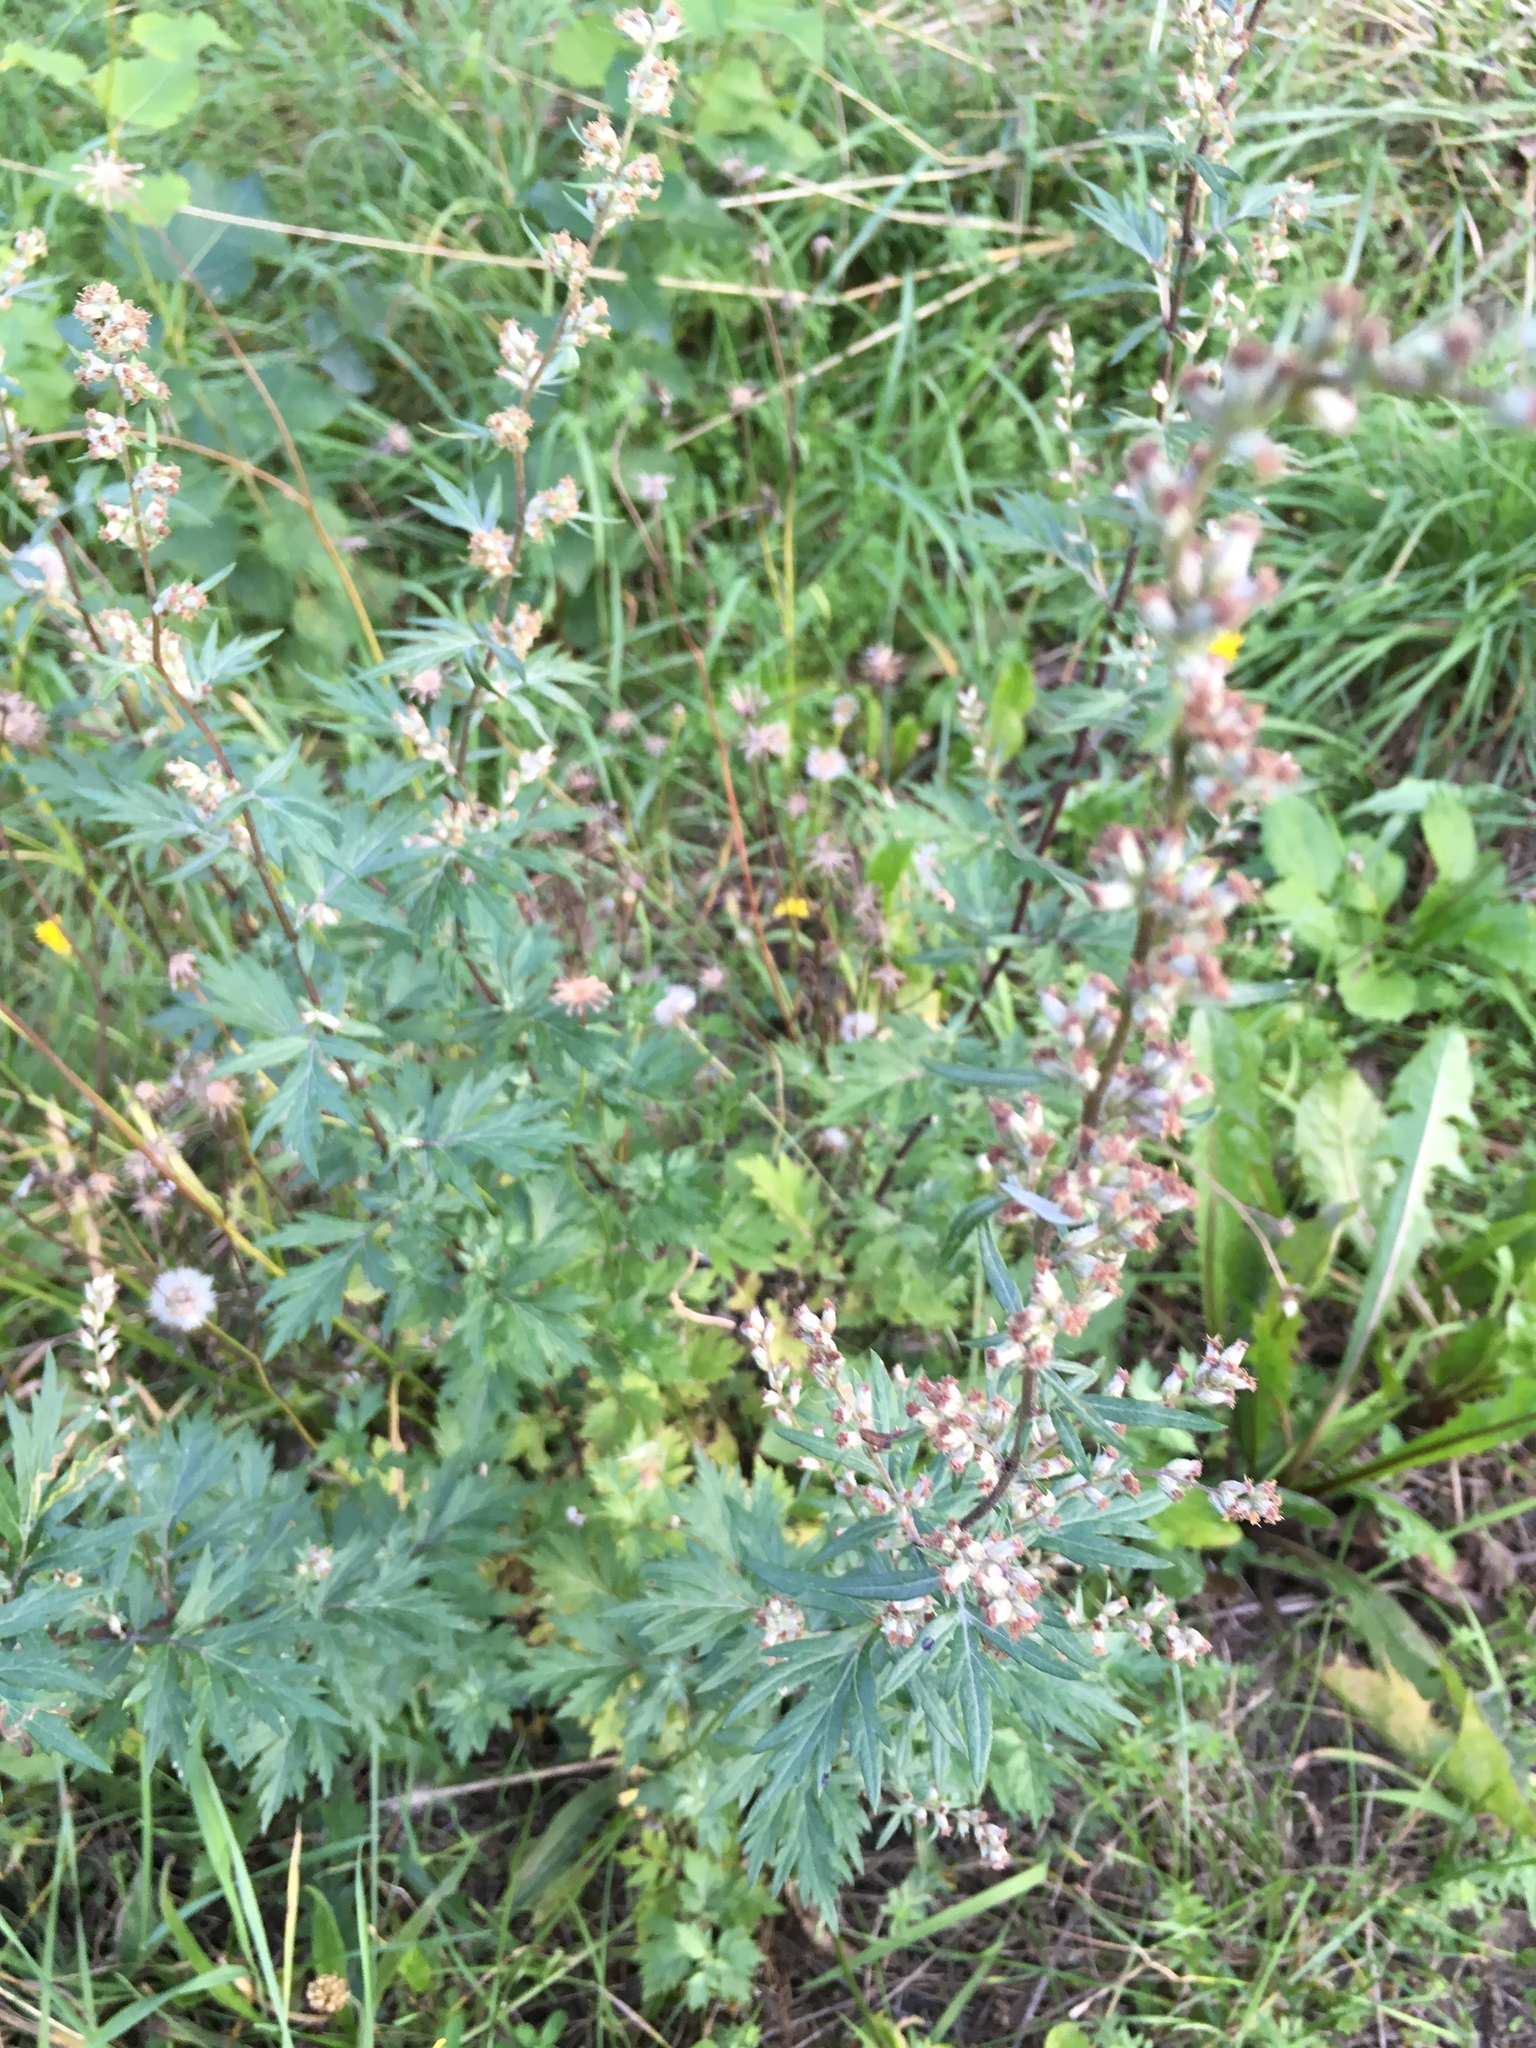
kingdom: Plantae
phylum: Tracheophyta
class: Magnoliopsida
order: Asterales
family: Asteraceae
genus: Artemisia
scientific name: Artemisia vulgaris
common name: Mugwort
